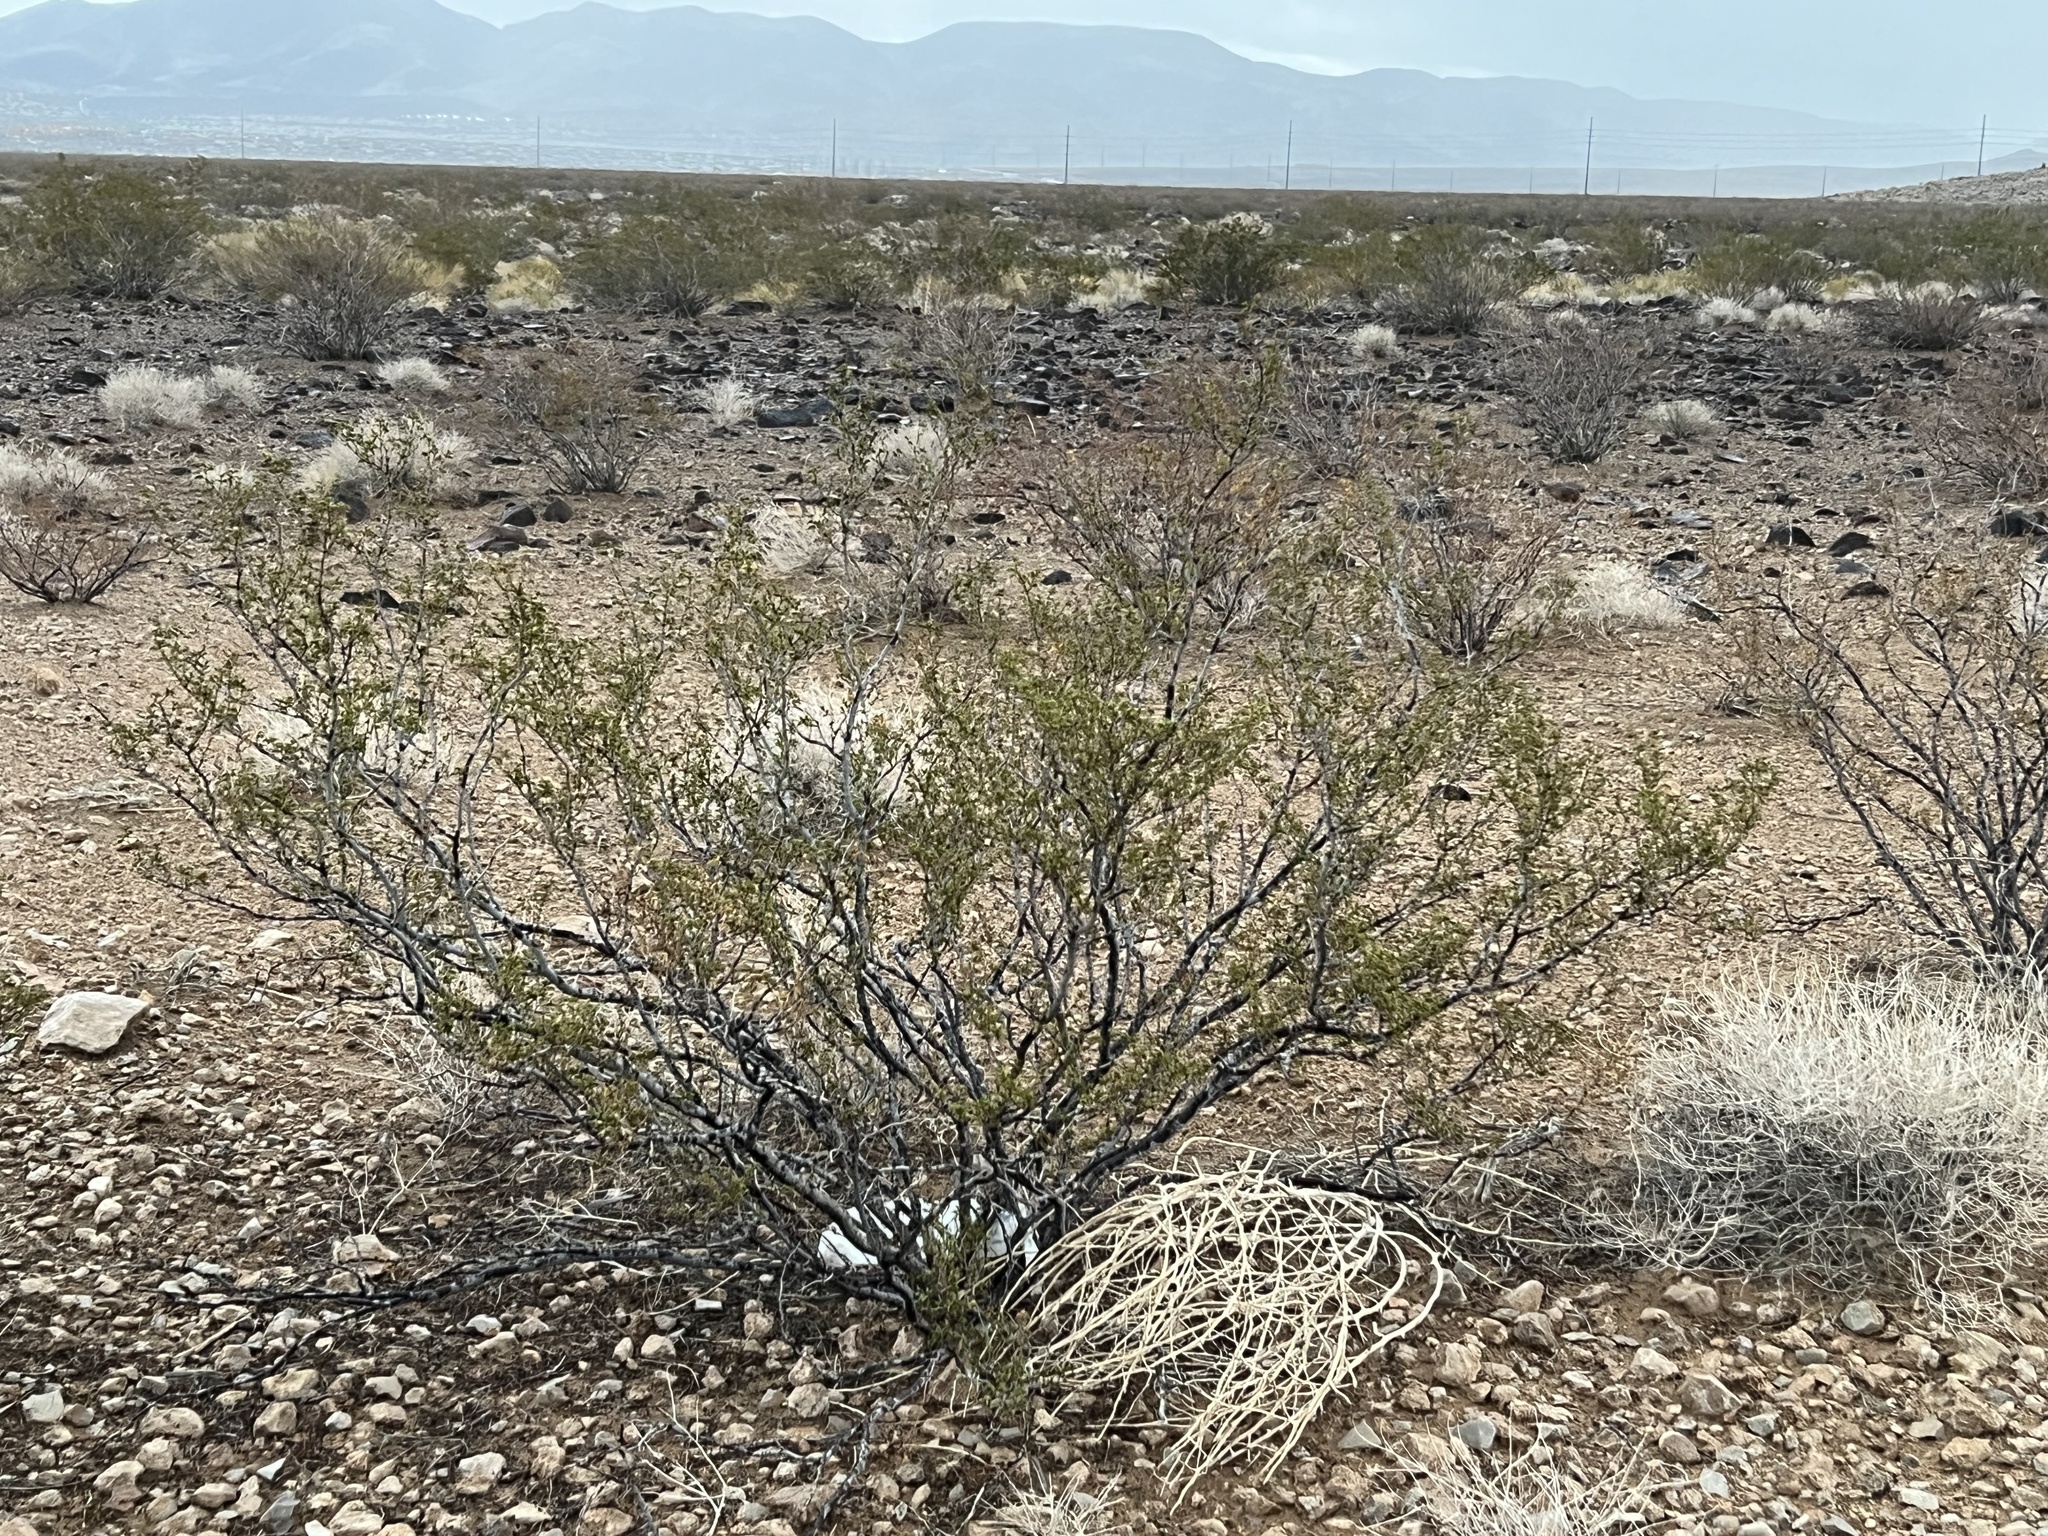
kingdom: Plantae
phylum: Tracheophyta
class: Magnoliopsida
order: Zygophyllales
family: Zygophyllaceae
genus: Larrea
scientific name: Larrea tridentata
